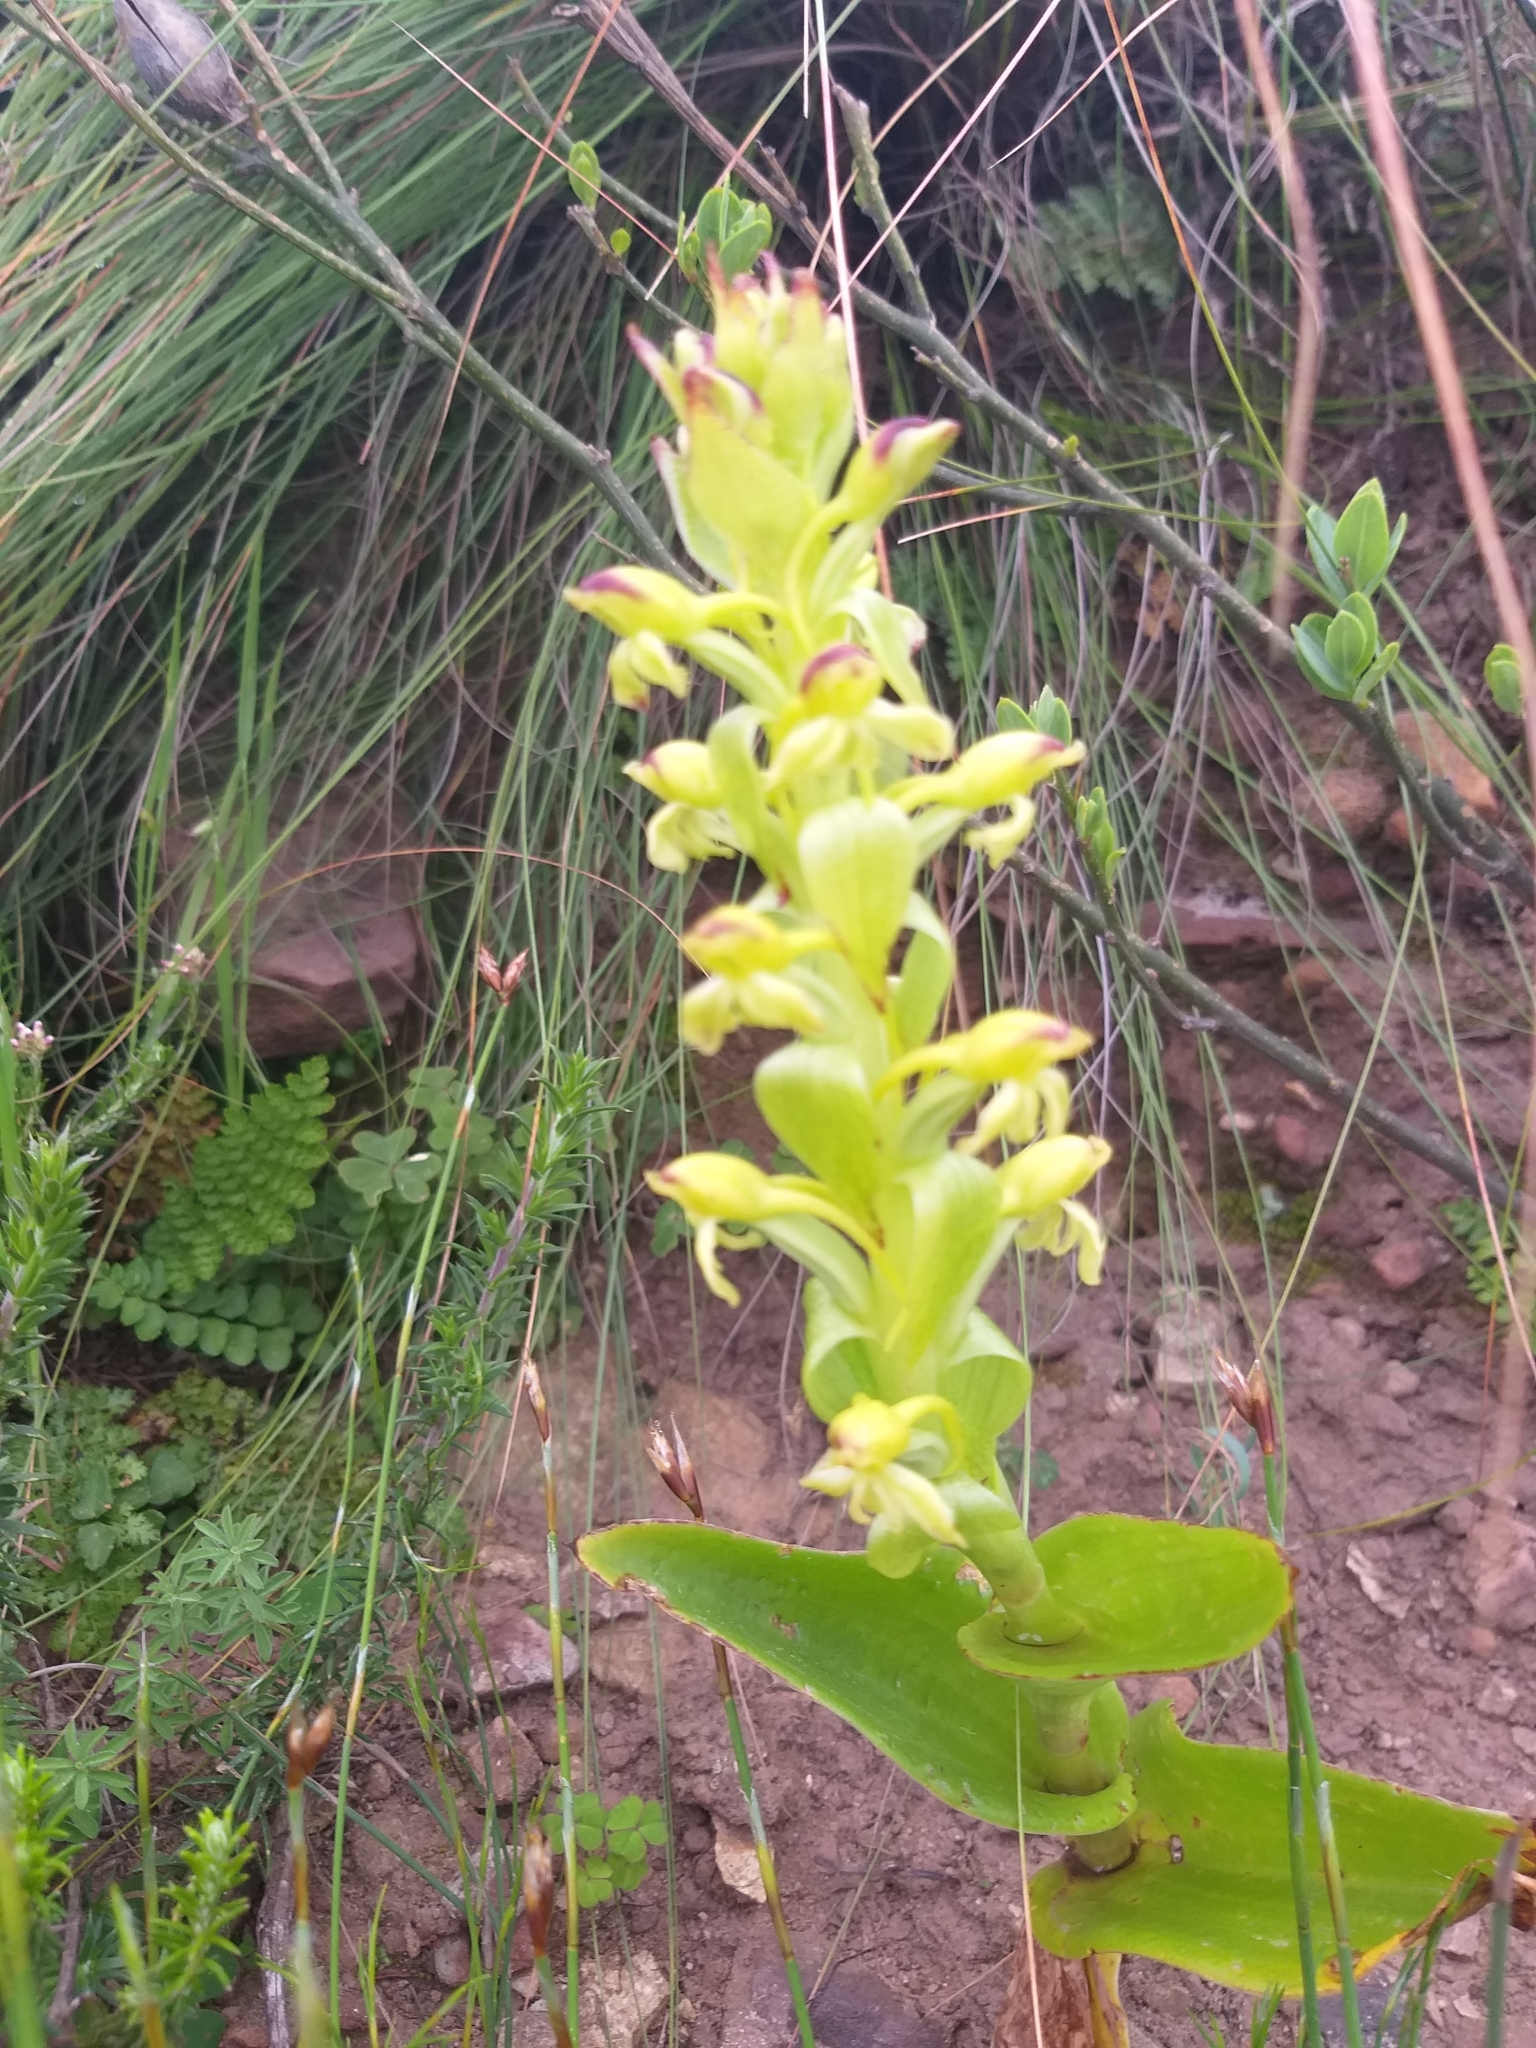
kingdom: Plantae
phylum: Tracheophyta
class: Liliopsida
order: Asparagales
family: Orchidaceae
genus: Satyrium
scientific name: Satyrium odorum
